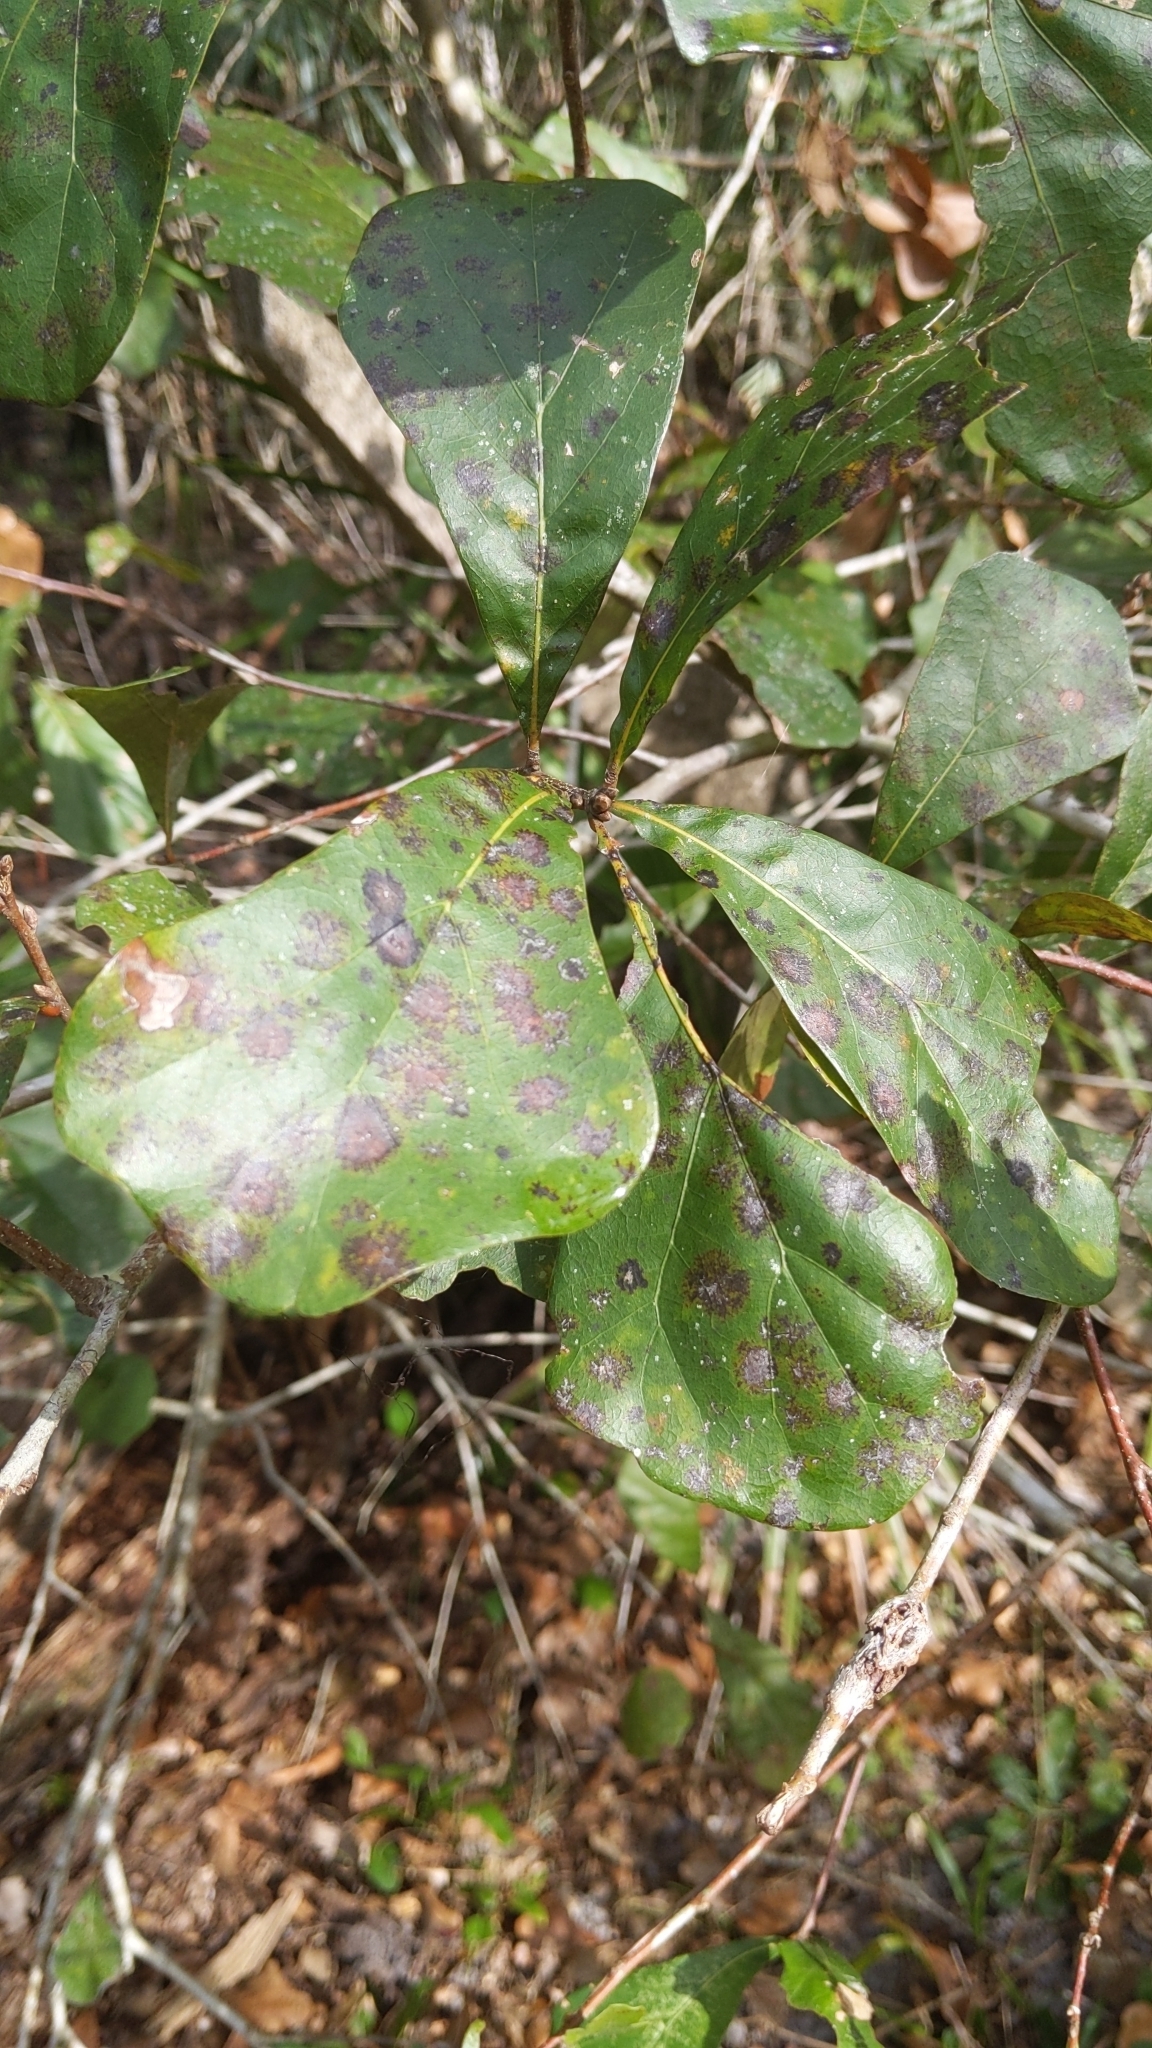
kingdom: Plantae
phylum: Tracheophyta
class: Magnoliopsida
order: Fagales
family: Fagaceae
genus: Quercus
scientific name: Quercus nigra
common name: Water oak
